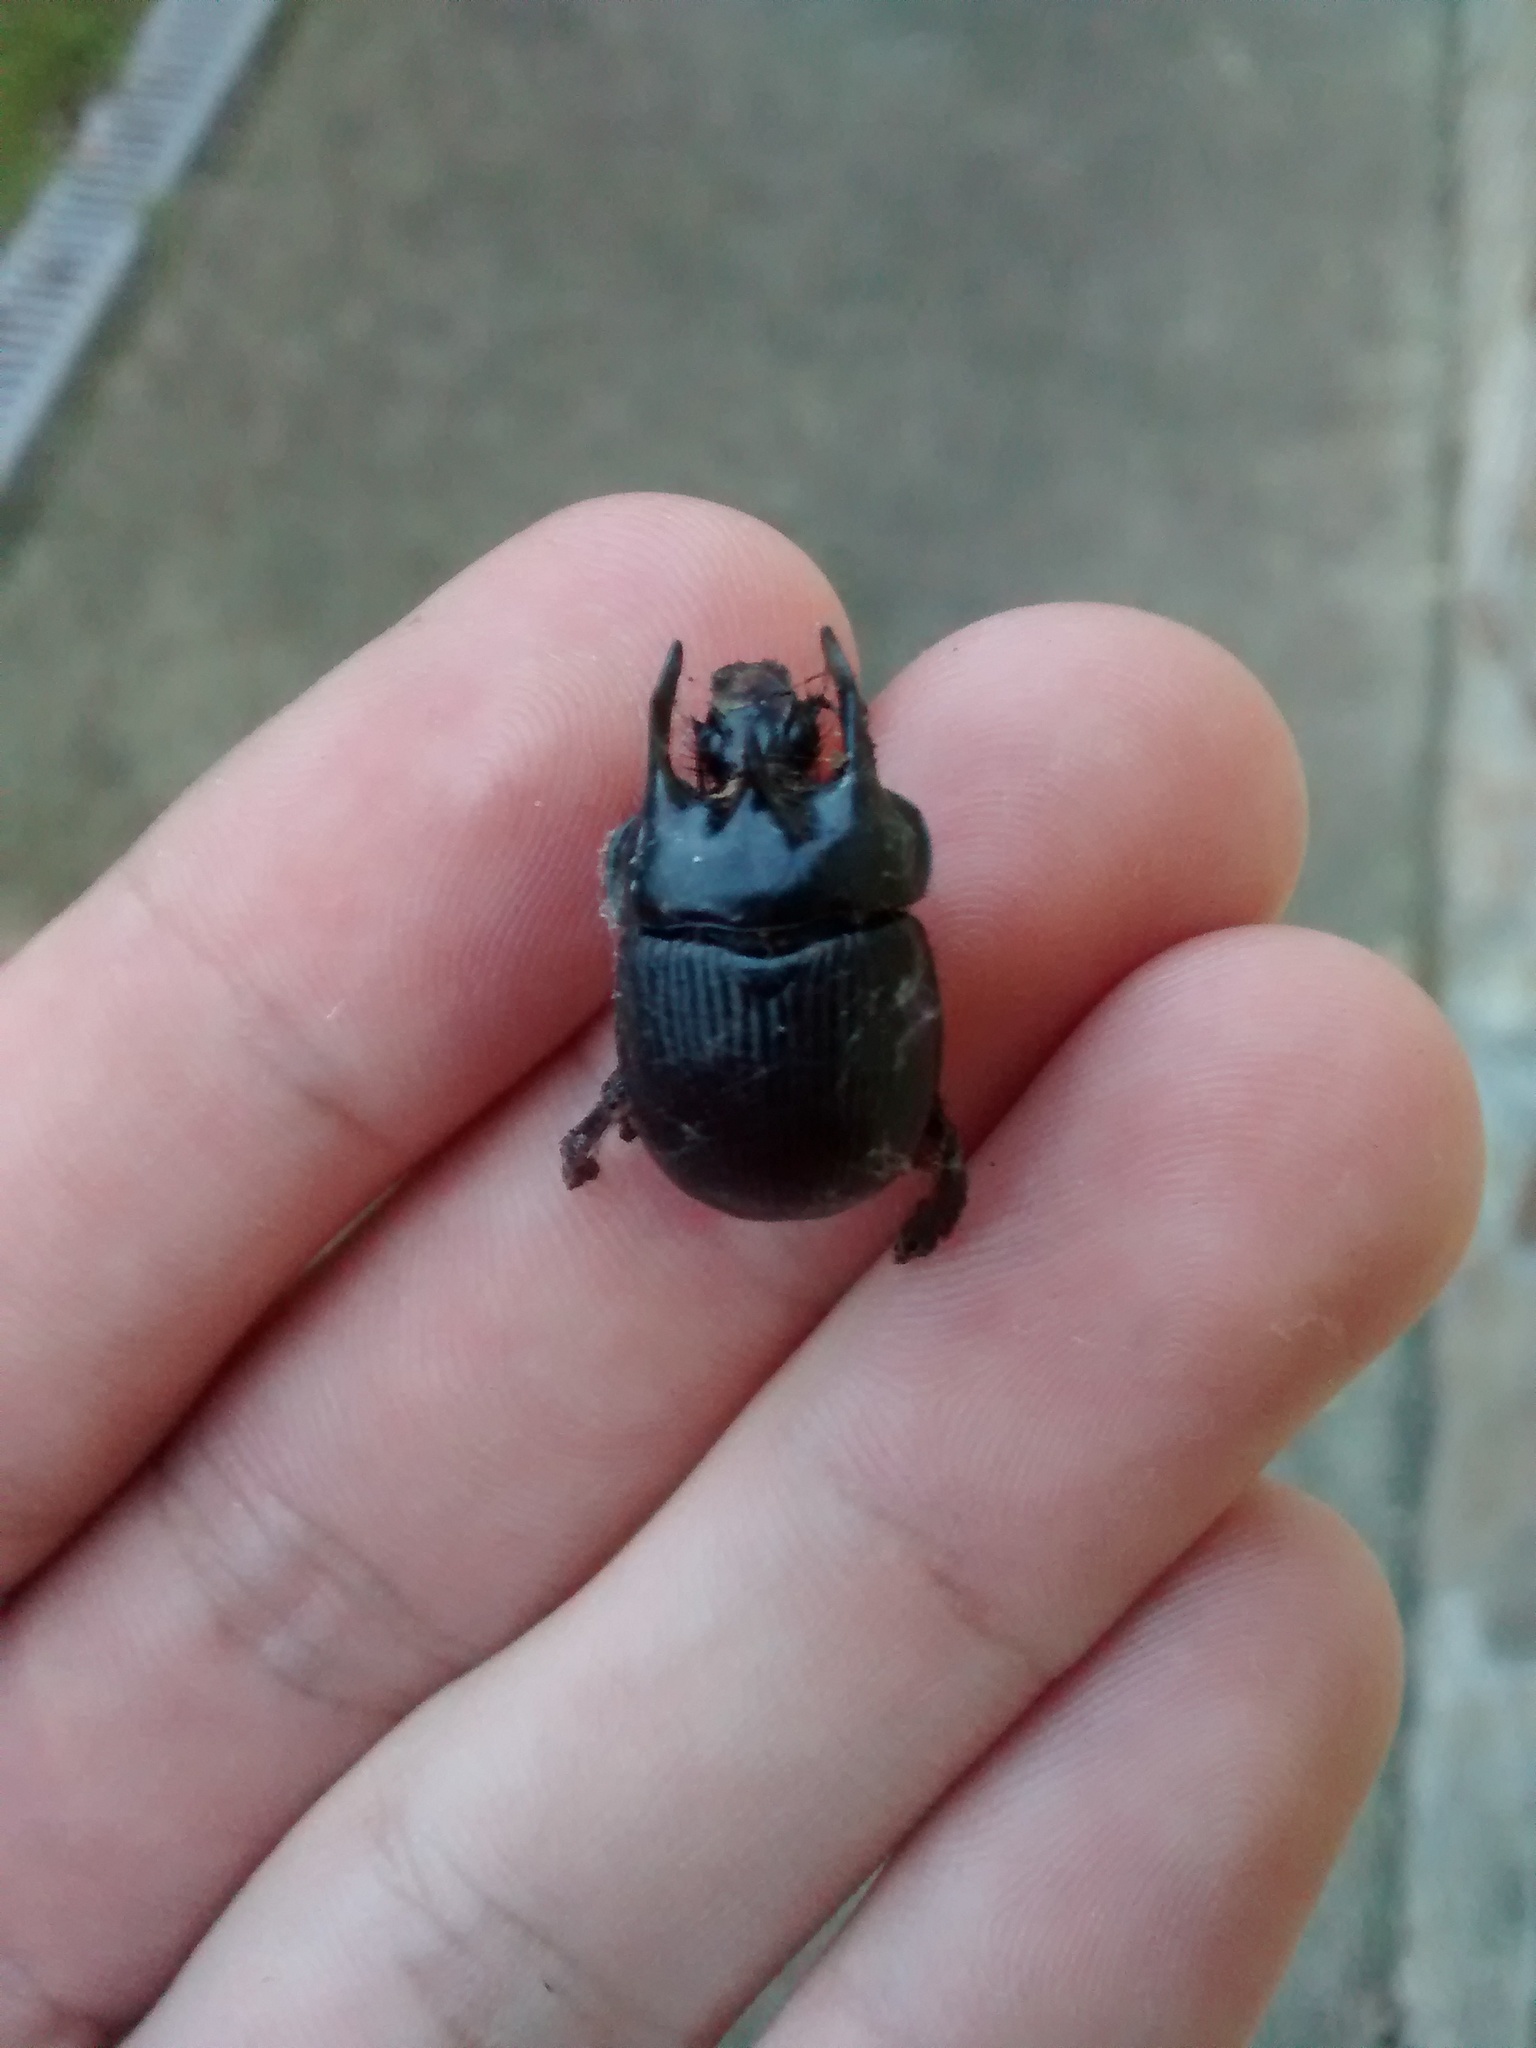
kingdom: Animalia
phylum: Arthropoda
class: Insecta
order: Coleoptera
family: Geotrupidae
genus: Typhaeus
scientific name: Typhaeus typhoeus
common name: Minotaur beetle
